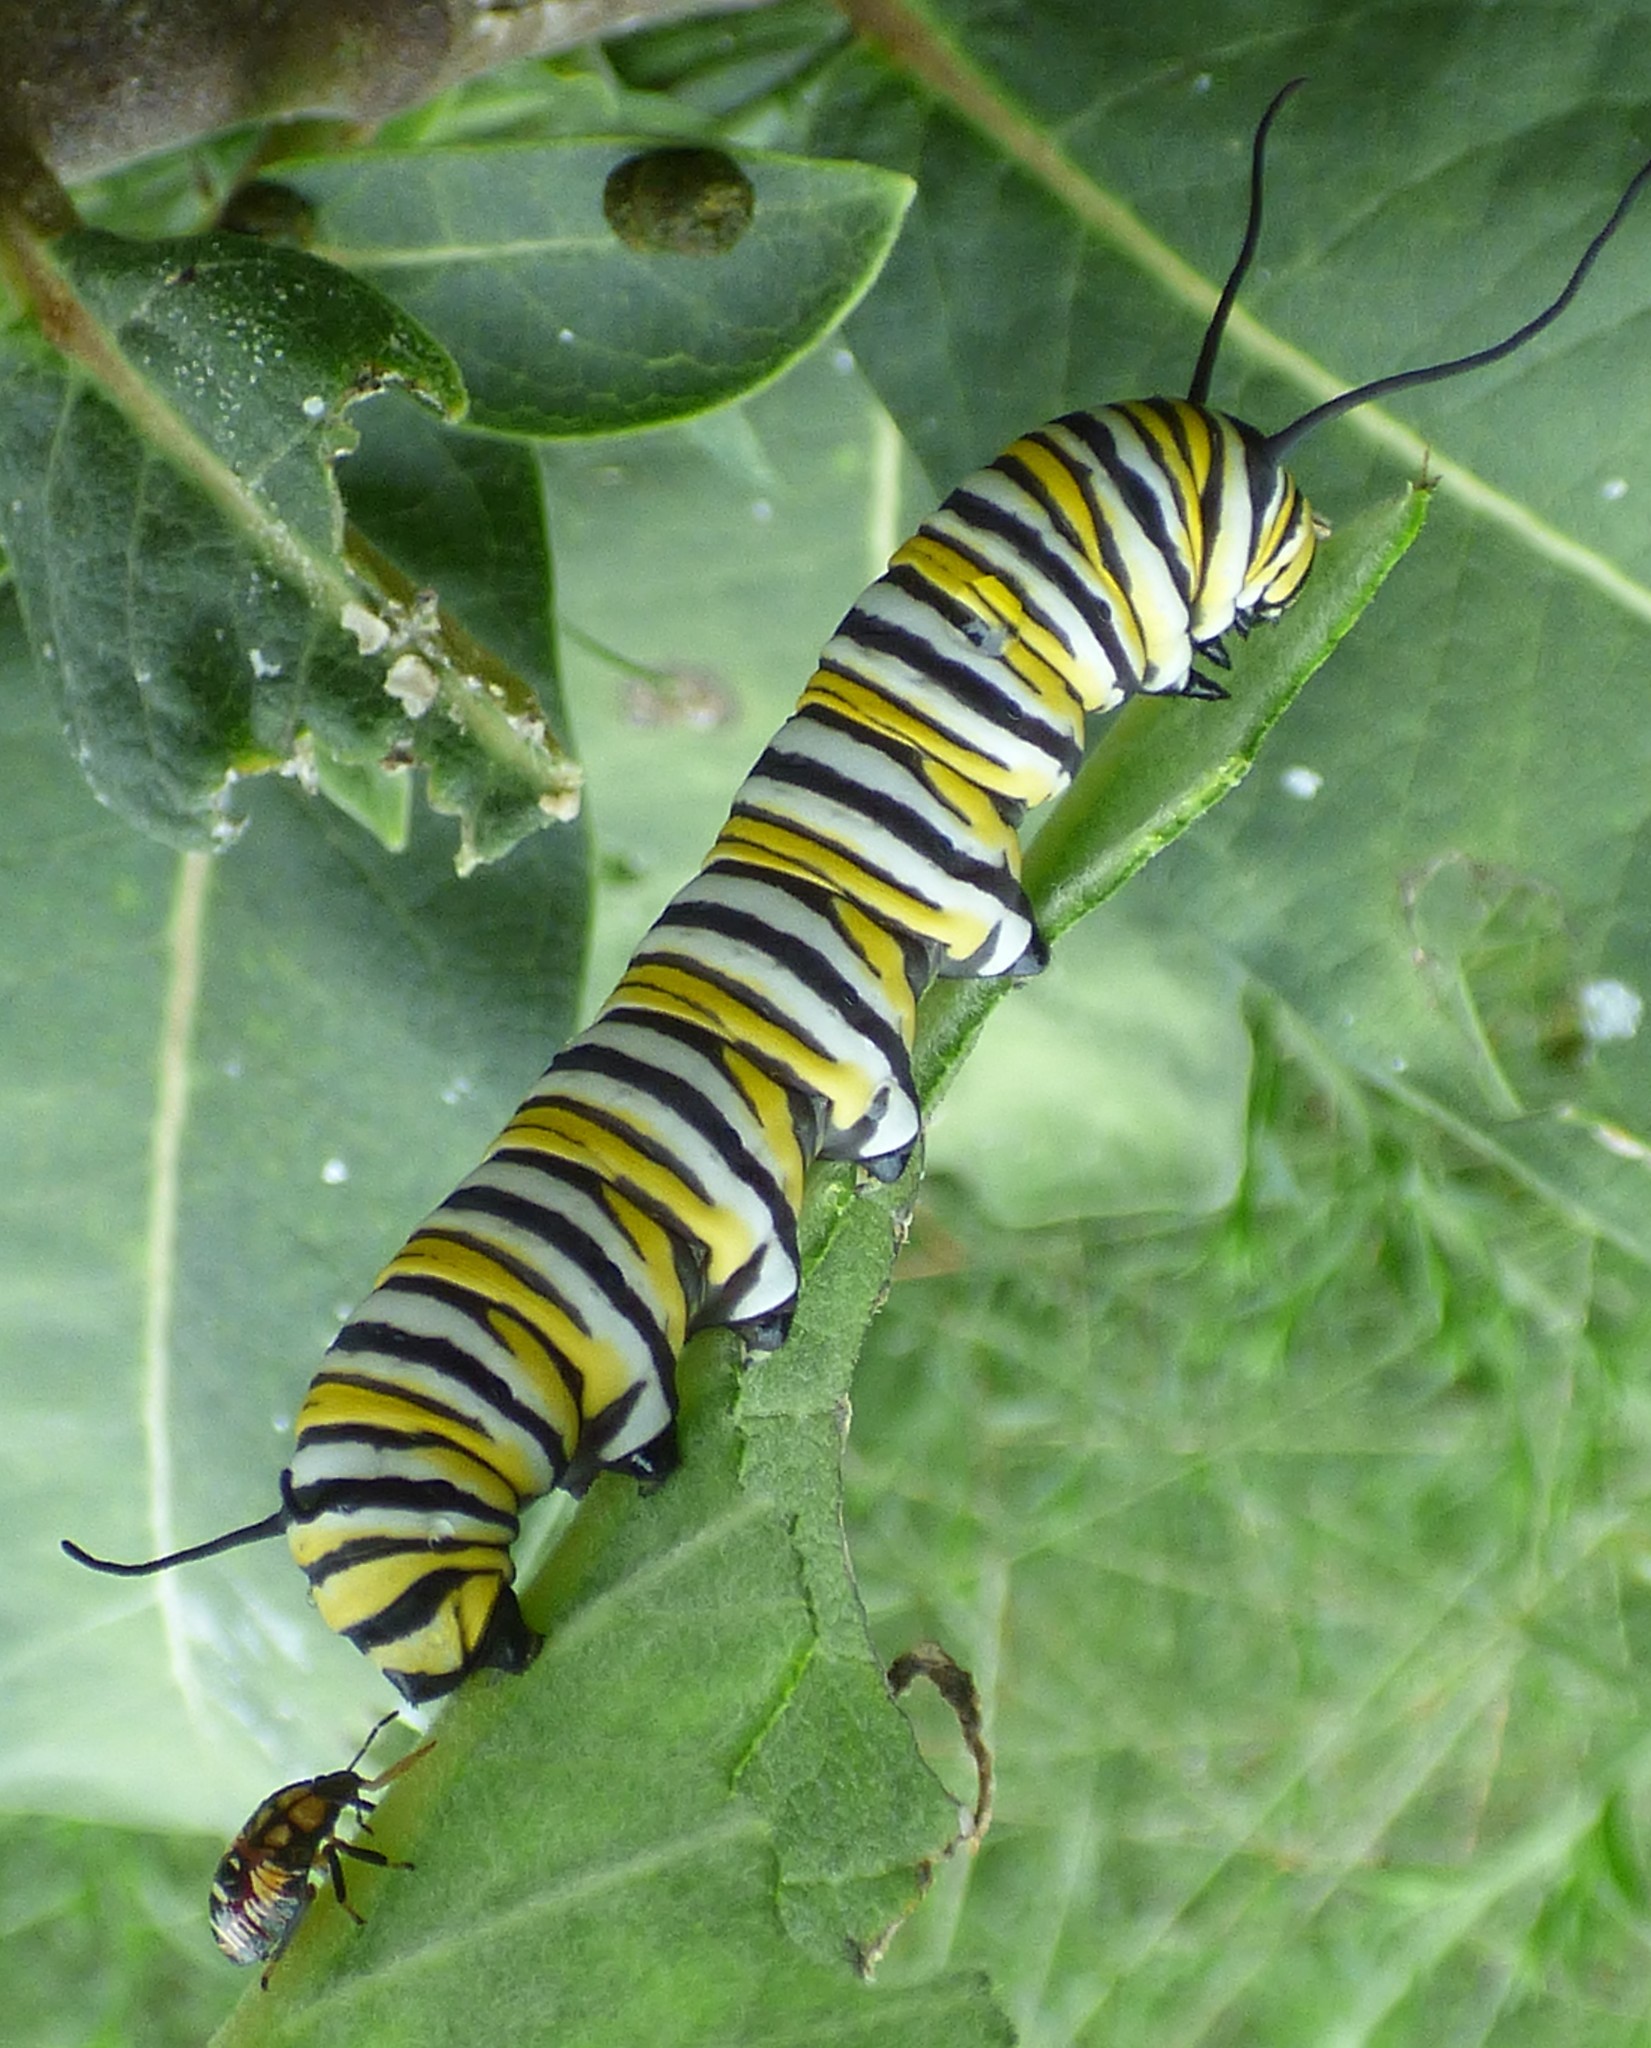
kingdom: Animalia
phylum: Arthropoda
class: Insecta
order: Lepidoptera
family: Nymphalidae
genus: Danaus
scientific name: Danaus plexippus
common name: Monarch
